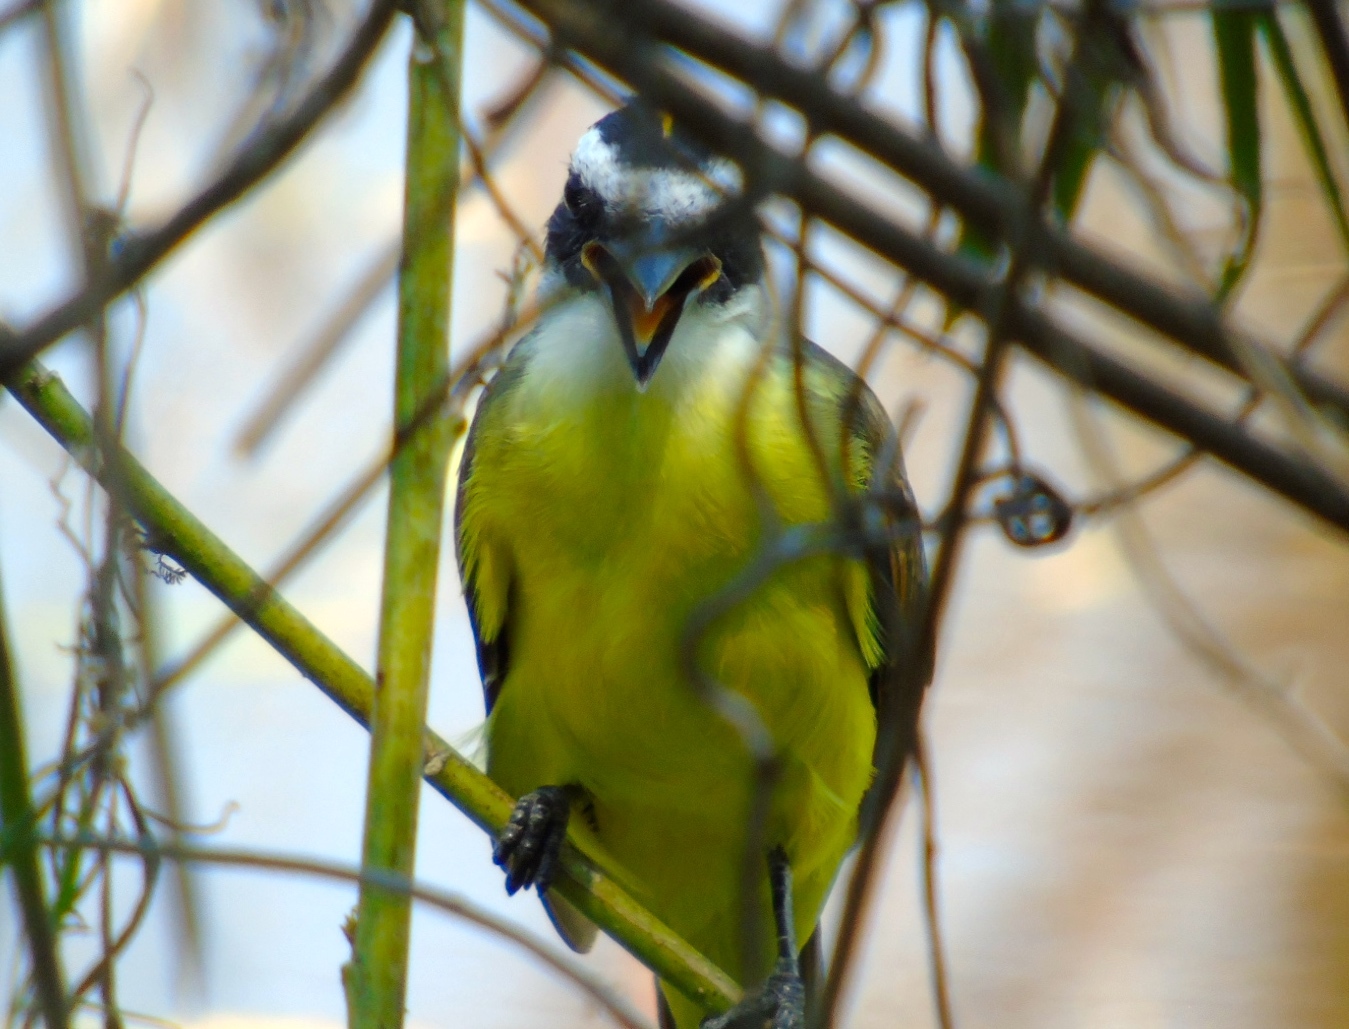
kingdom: Animalia
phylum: Chordata
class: Aves
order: Passeriformes
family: Tyrannidae
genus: Pitangus
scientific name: Pitangus sulphuratus
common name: Great kiskadee
